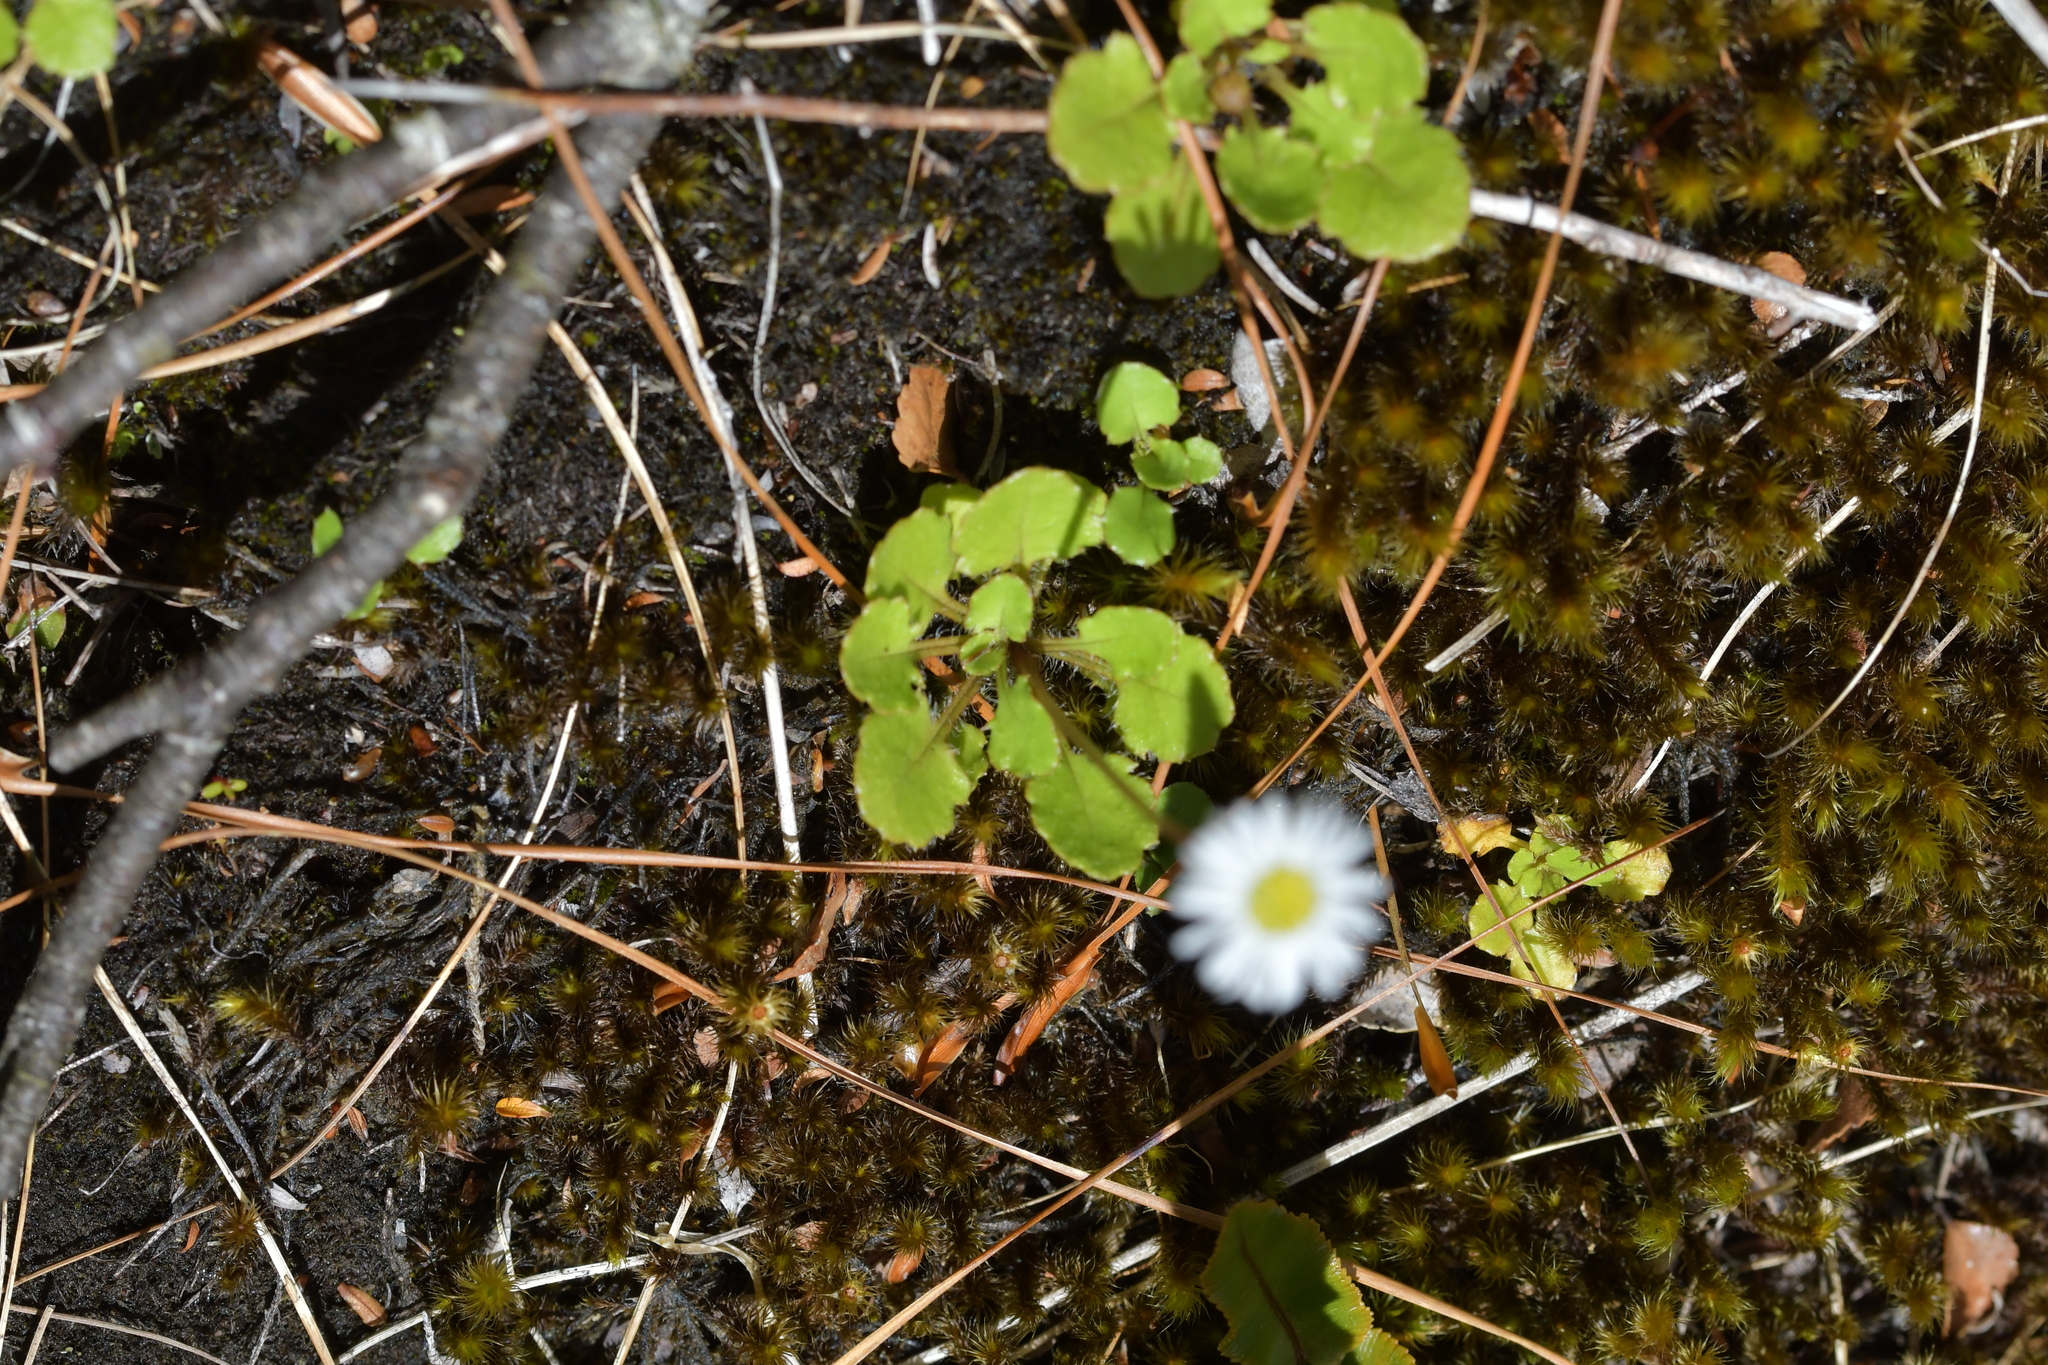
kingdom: Plantae
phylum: Tracheophyta
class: Magnoliopsida
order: Asterales
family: Asteraceae
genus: Lagenophora
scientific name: Lagenophora pumila
